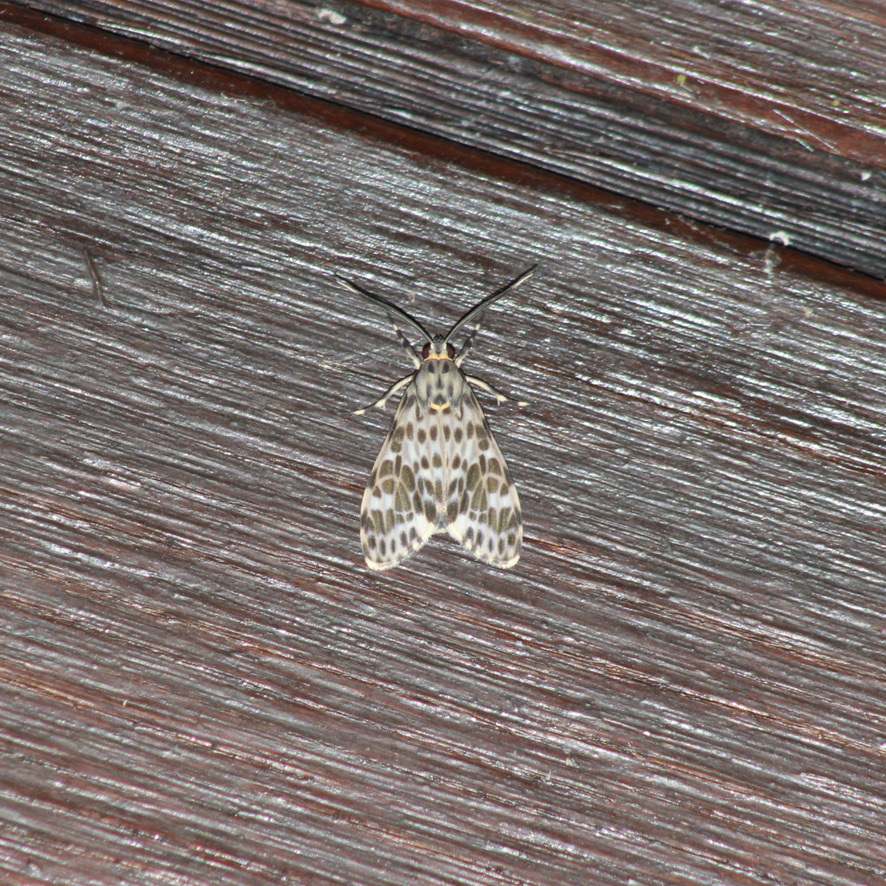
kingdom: Animalia
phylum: Arthropoda
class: Insecta
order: Lepidoptera
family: Erebidae
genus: Eucereon
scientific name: Eucereon punctata
